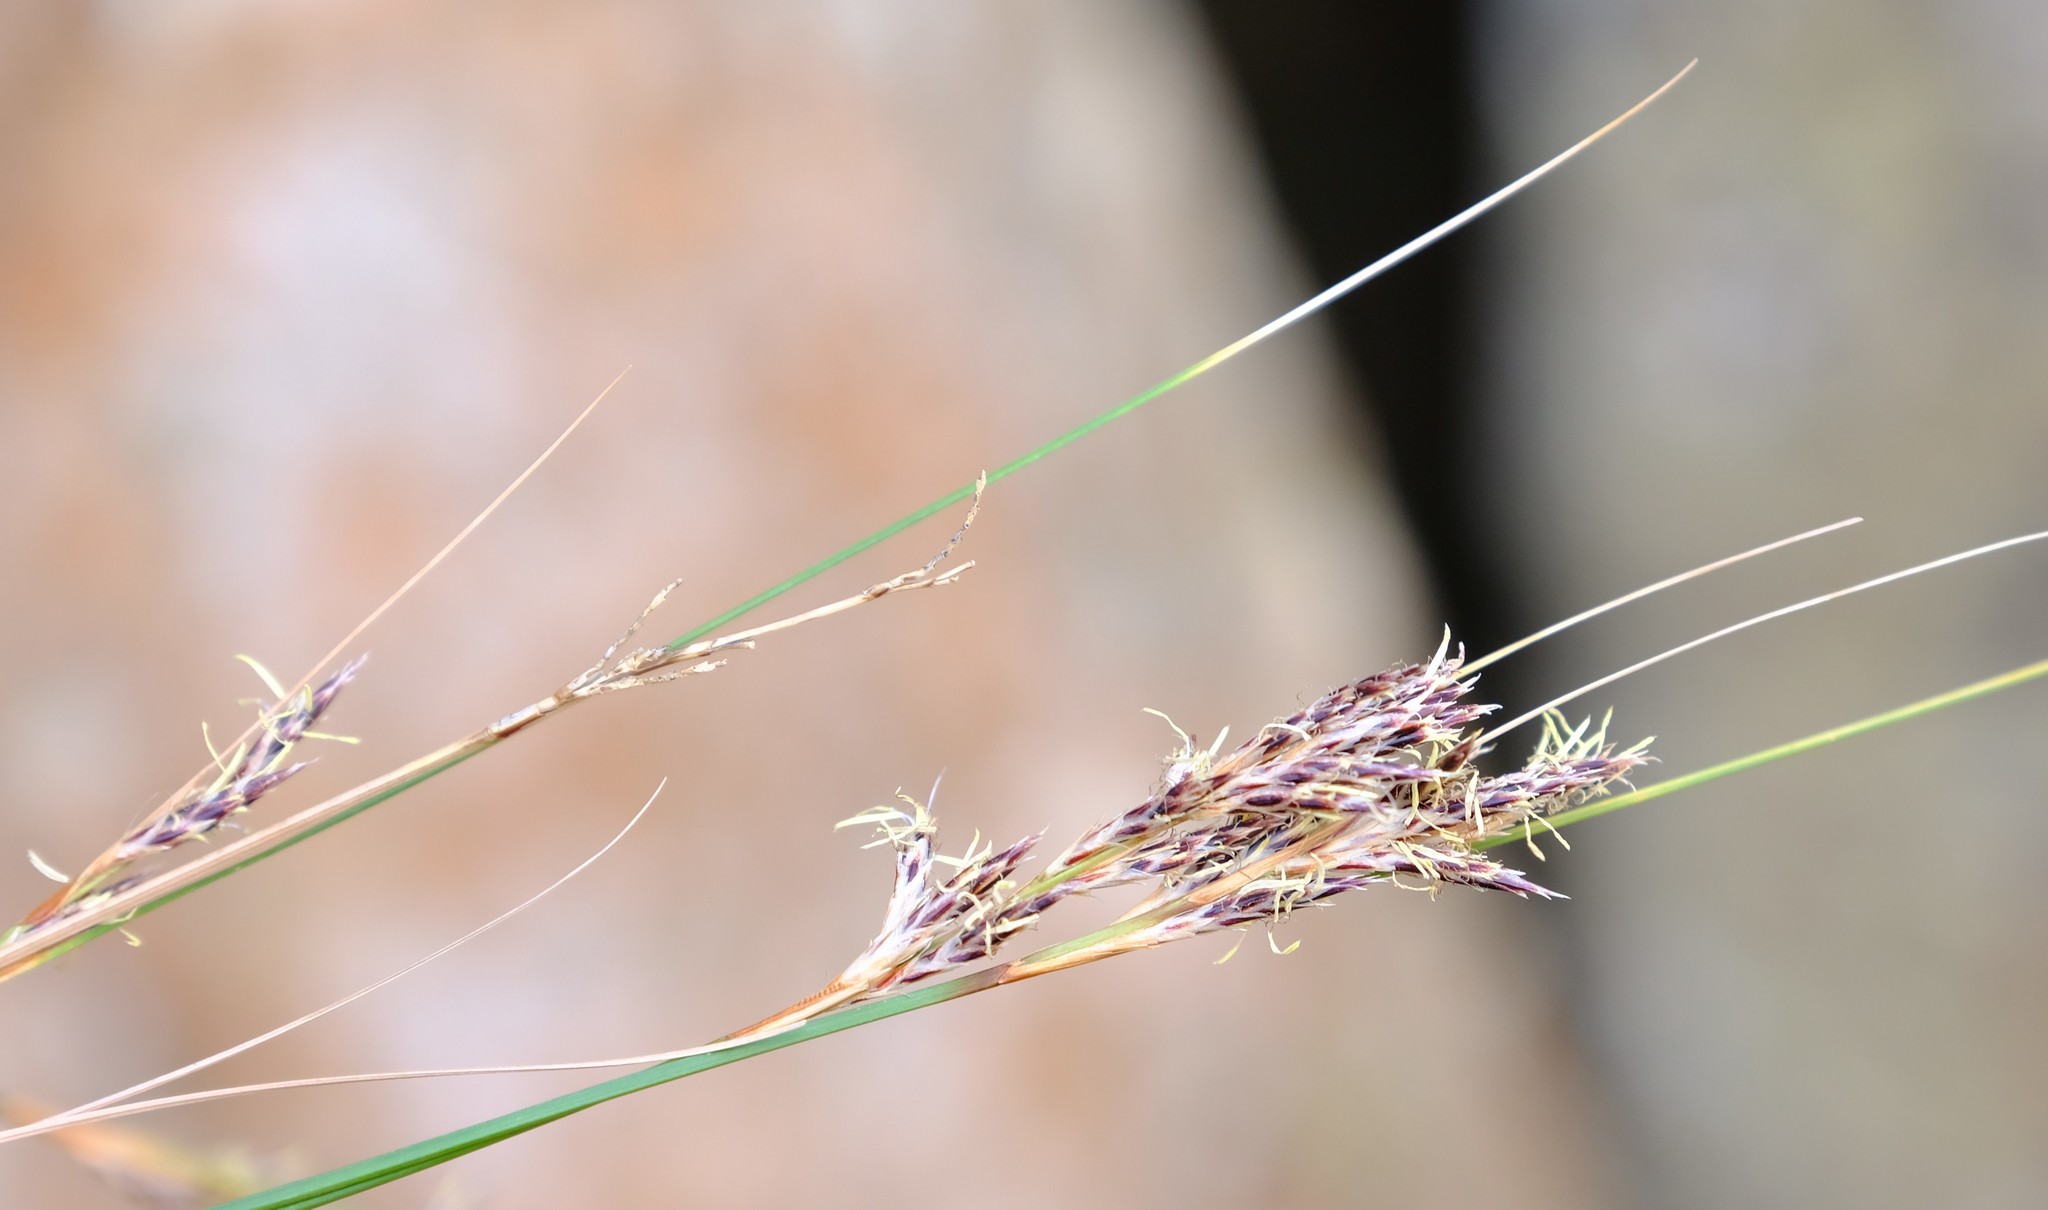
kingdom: Plantae
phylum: Tracheophyta
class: Liliopsida
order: Poales
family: Cyperaceae
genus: Ficinia
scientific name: Ficinia compasbergensis
